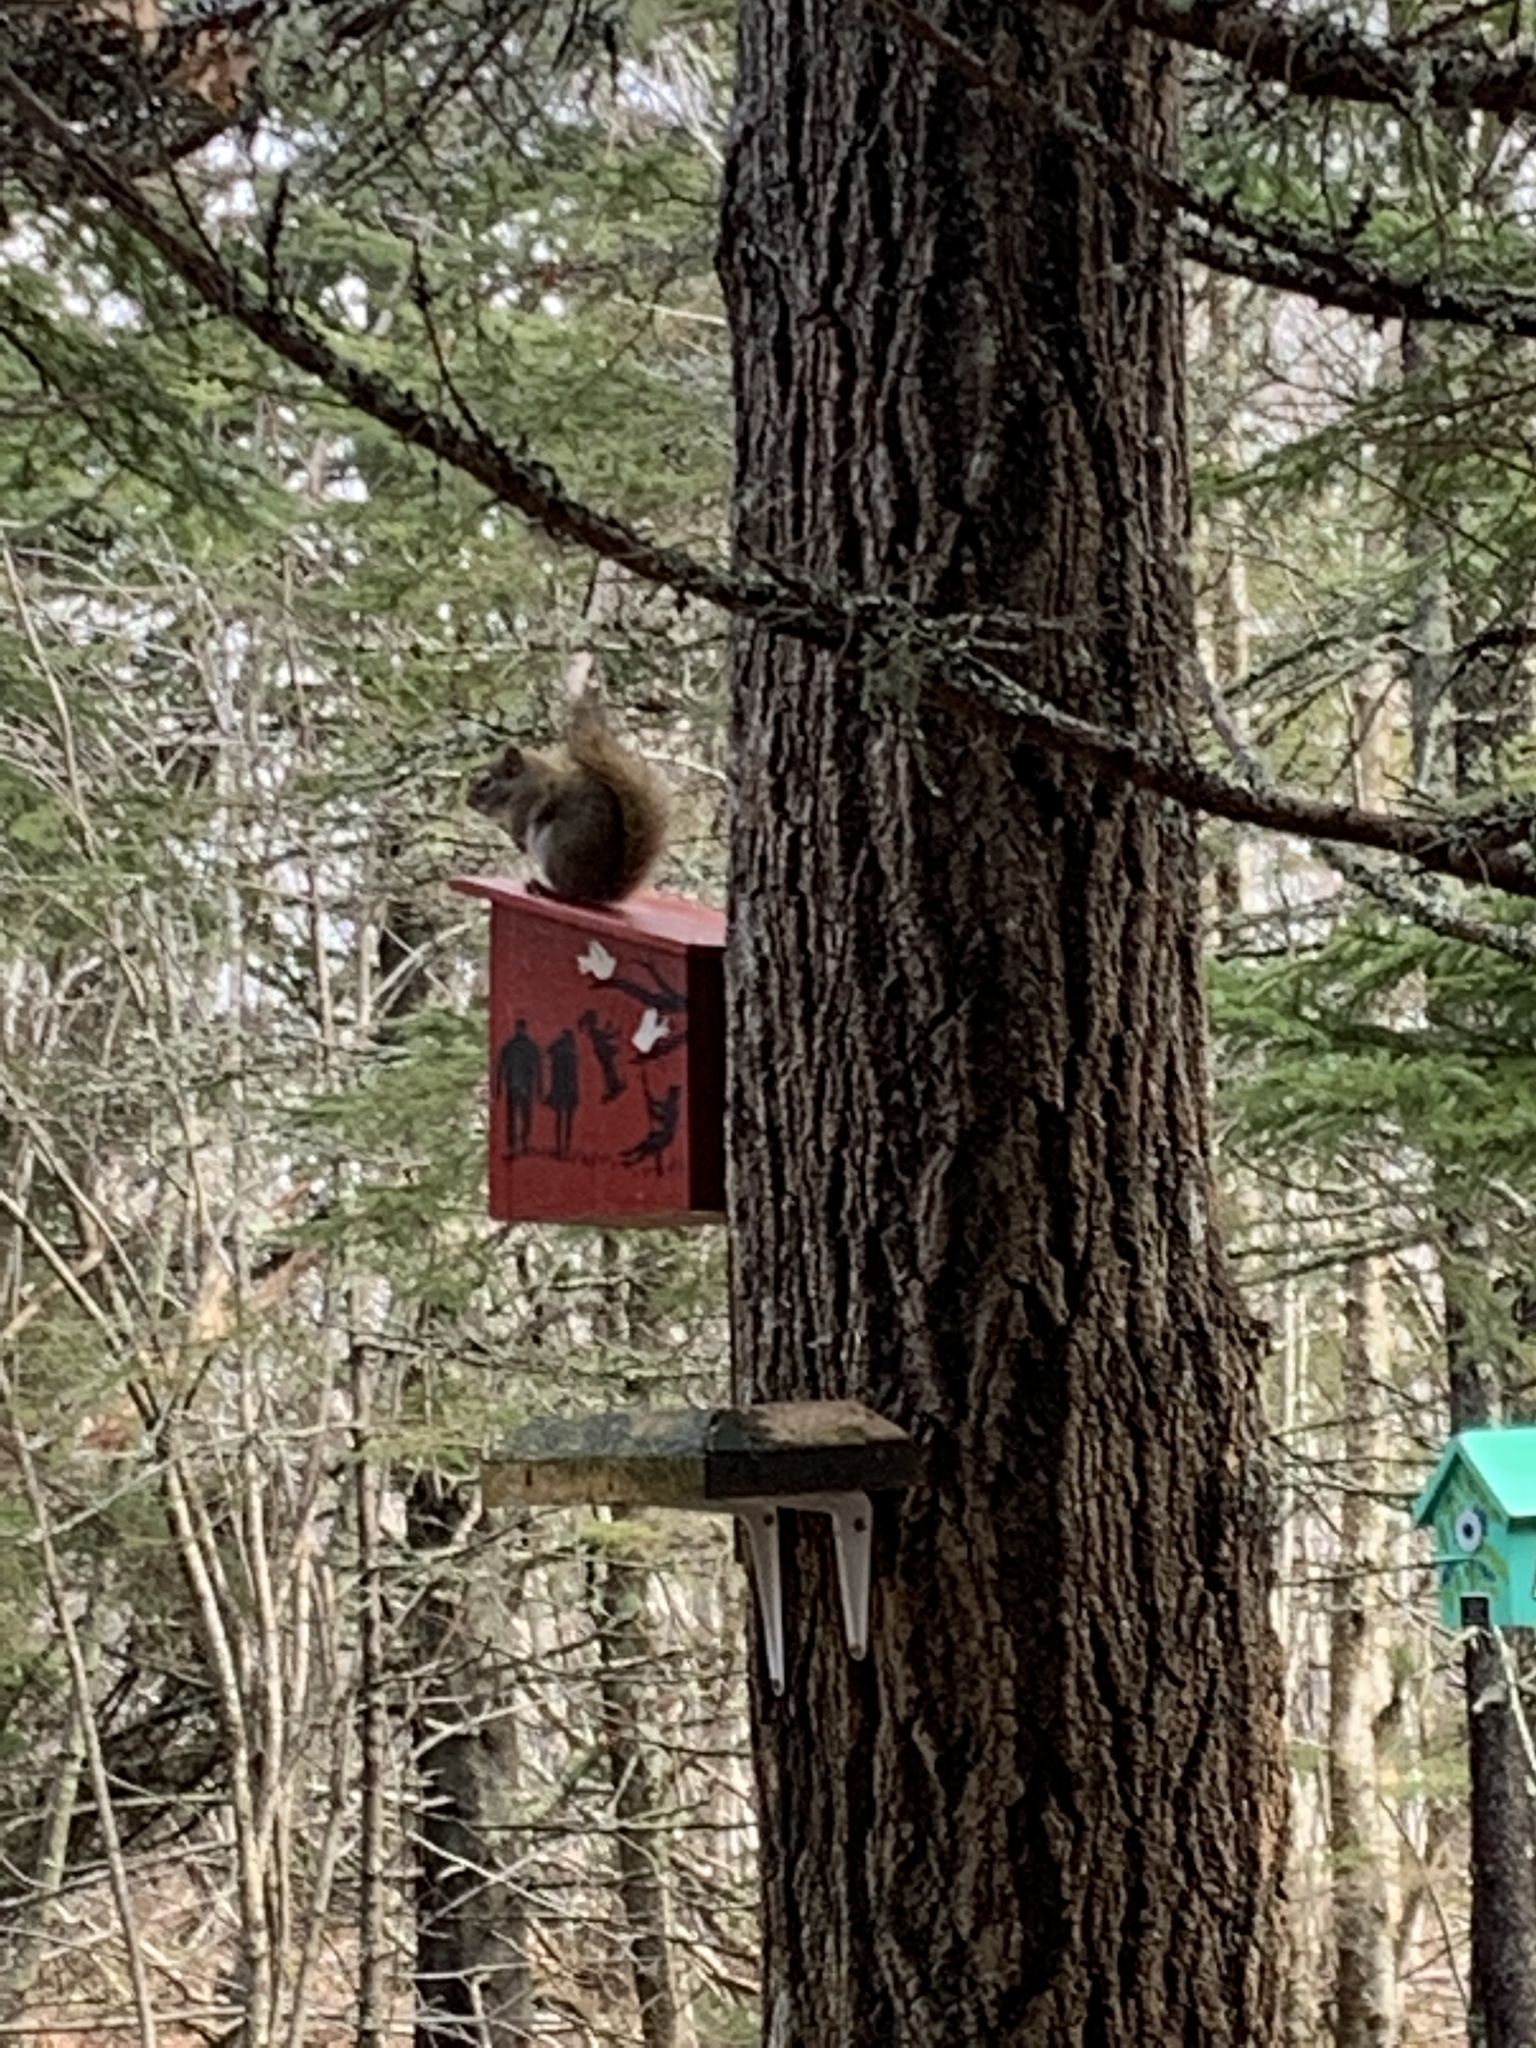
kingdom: Animalia
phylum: Chordata
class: Mammalia
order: Rodentia
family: Sciuridae
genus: Tamiasciurus
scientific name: Tamiasciurus hudsonicus
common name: Red squirrel
